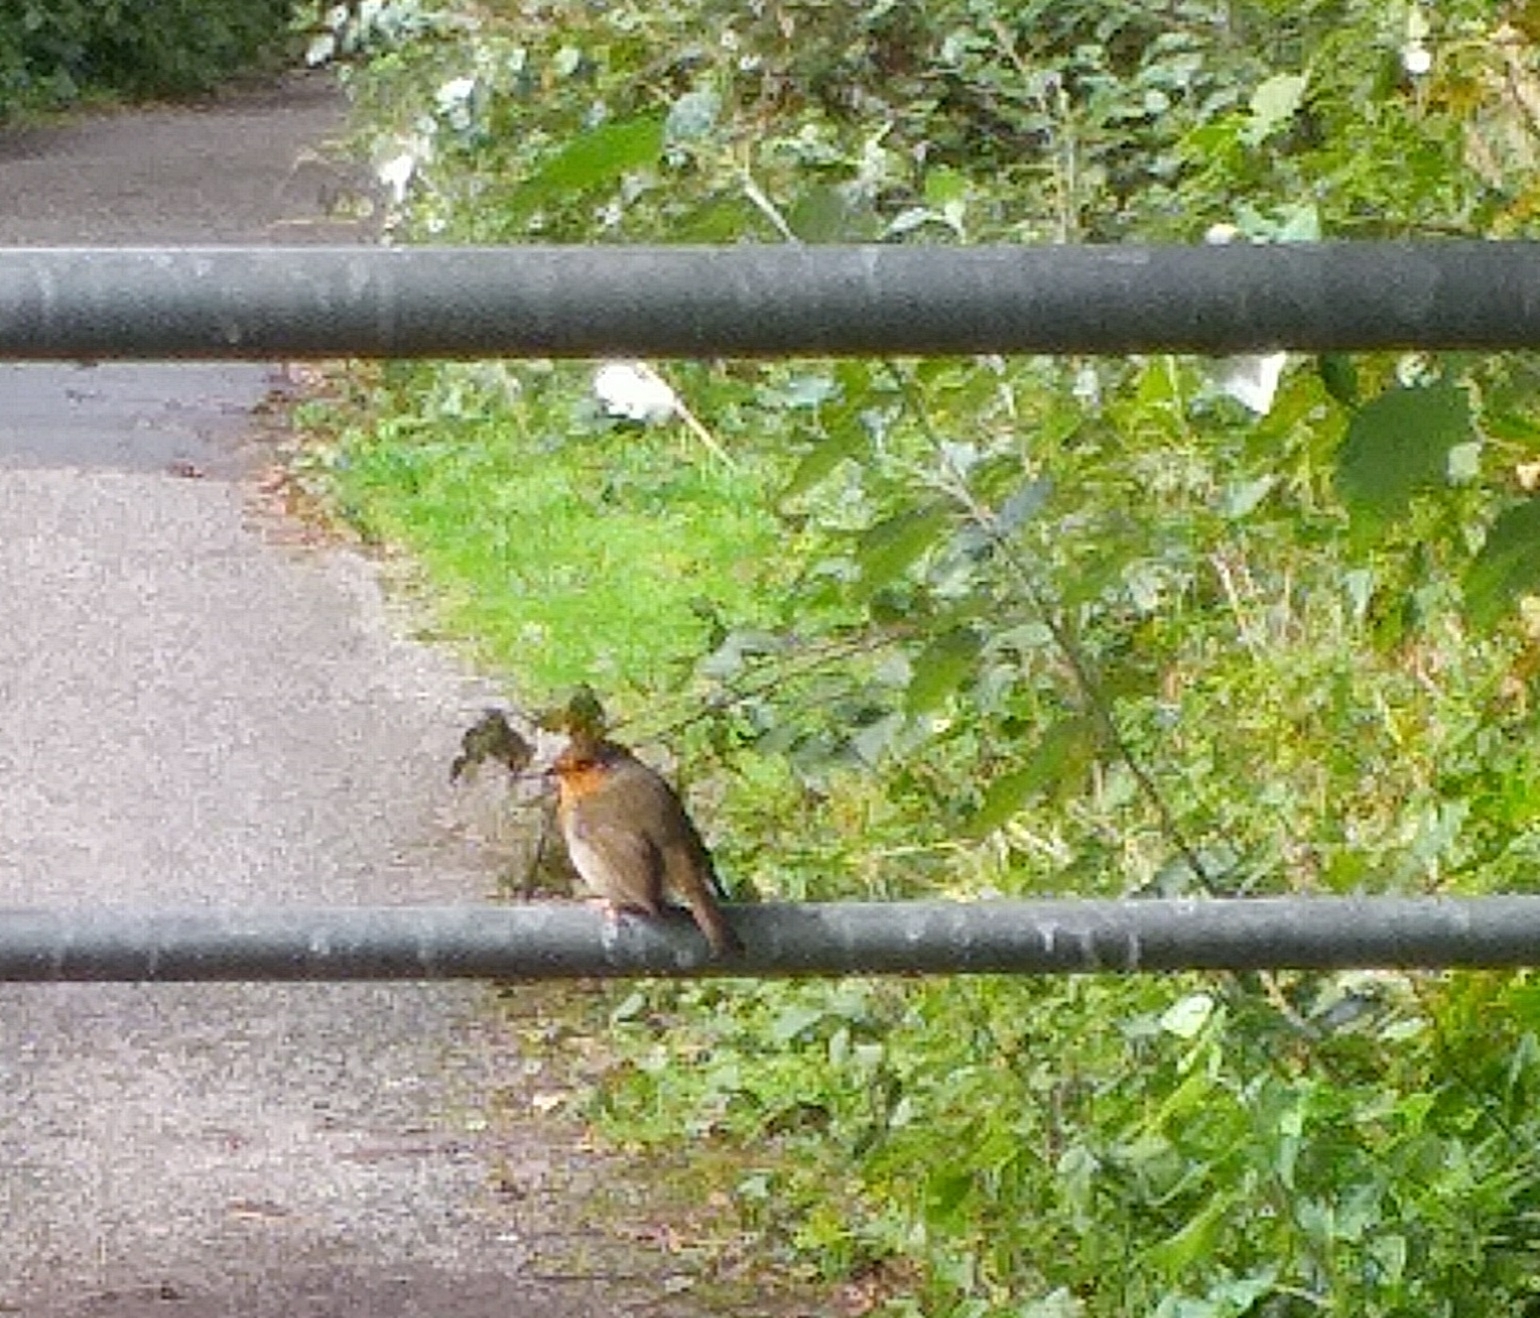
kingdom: Animalia
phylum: Chordata
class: Aves
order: Passeriformes
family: Muscicapidae
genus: Erithacus
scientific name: Erithacus rubecula
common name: European robin
